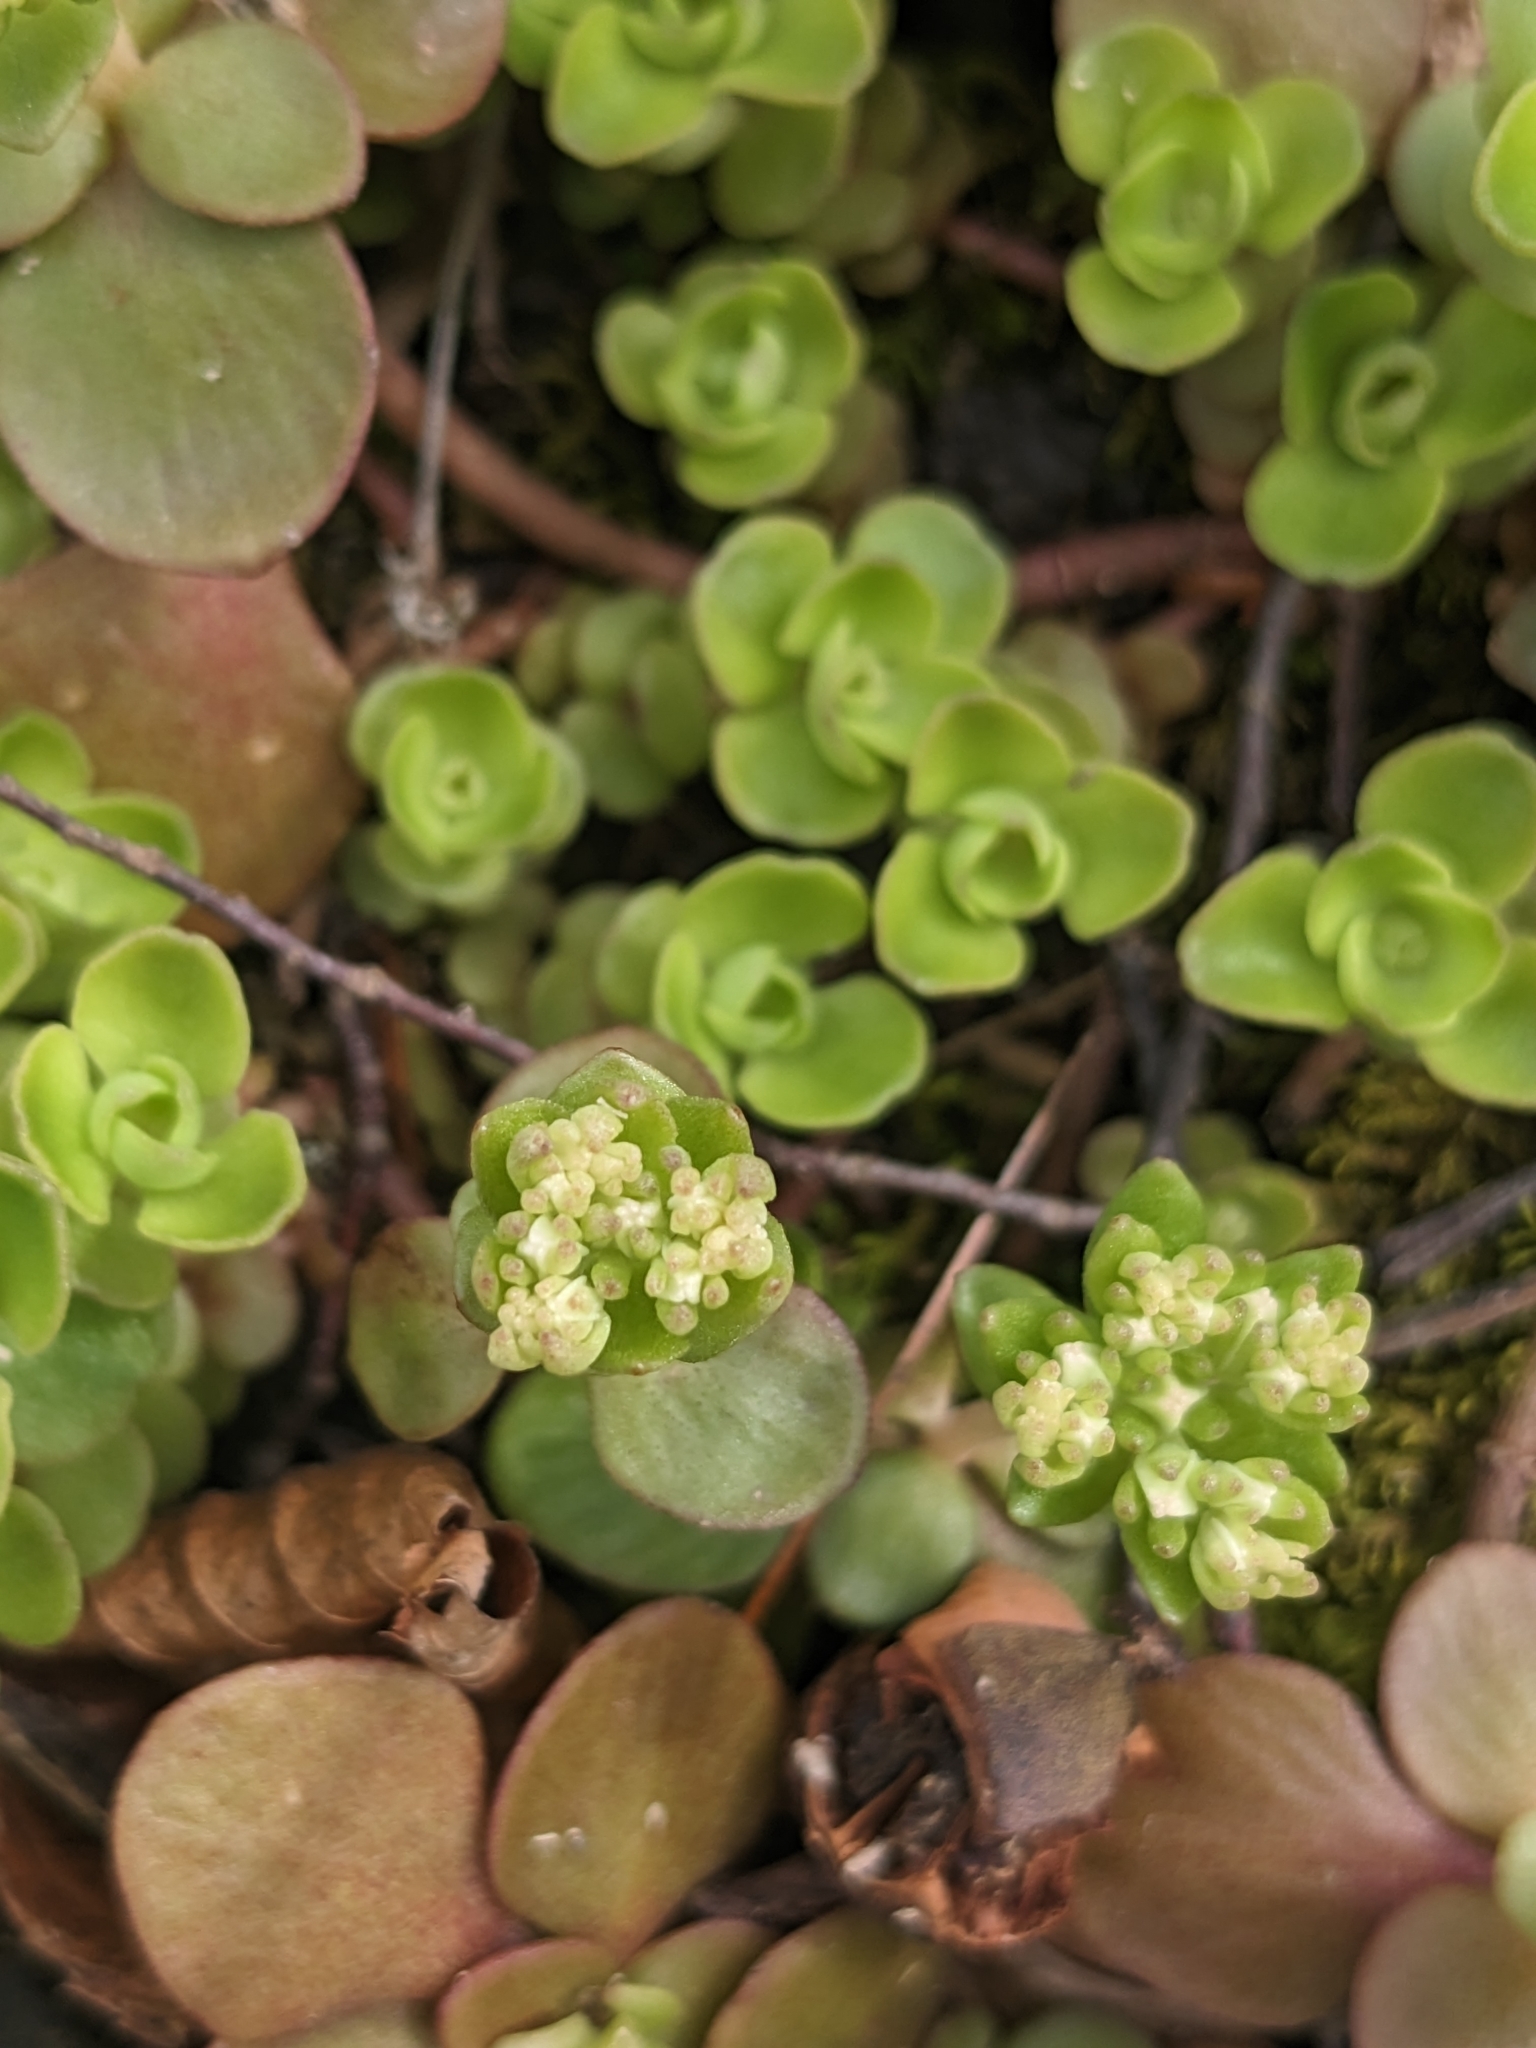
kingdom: Plantae
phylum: Tracheophyta
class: Magnoliopsida
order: Saxifragales
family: Crassulaceae
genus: Sedum
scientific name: Sedum ternatum
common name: Wild stonecrop
